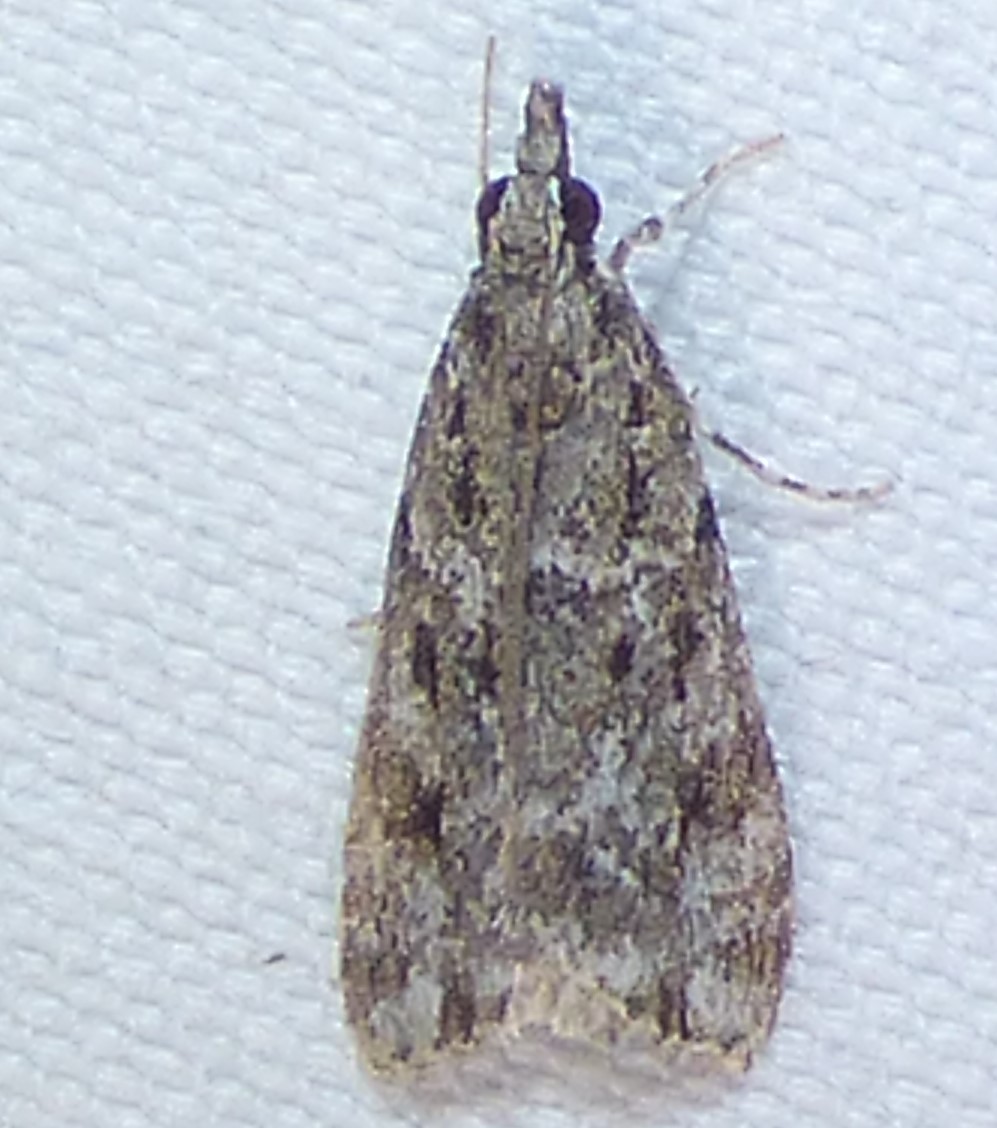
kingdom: Animalia
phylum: Arthropoda
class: Insecta
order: Lepidoptera
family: Crambidae
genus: Eudonia
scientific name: Eudonia heterosalis
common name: Mcdunnough's eudonia
